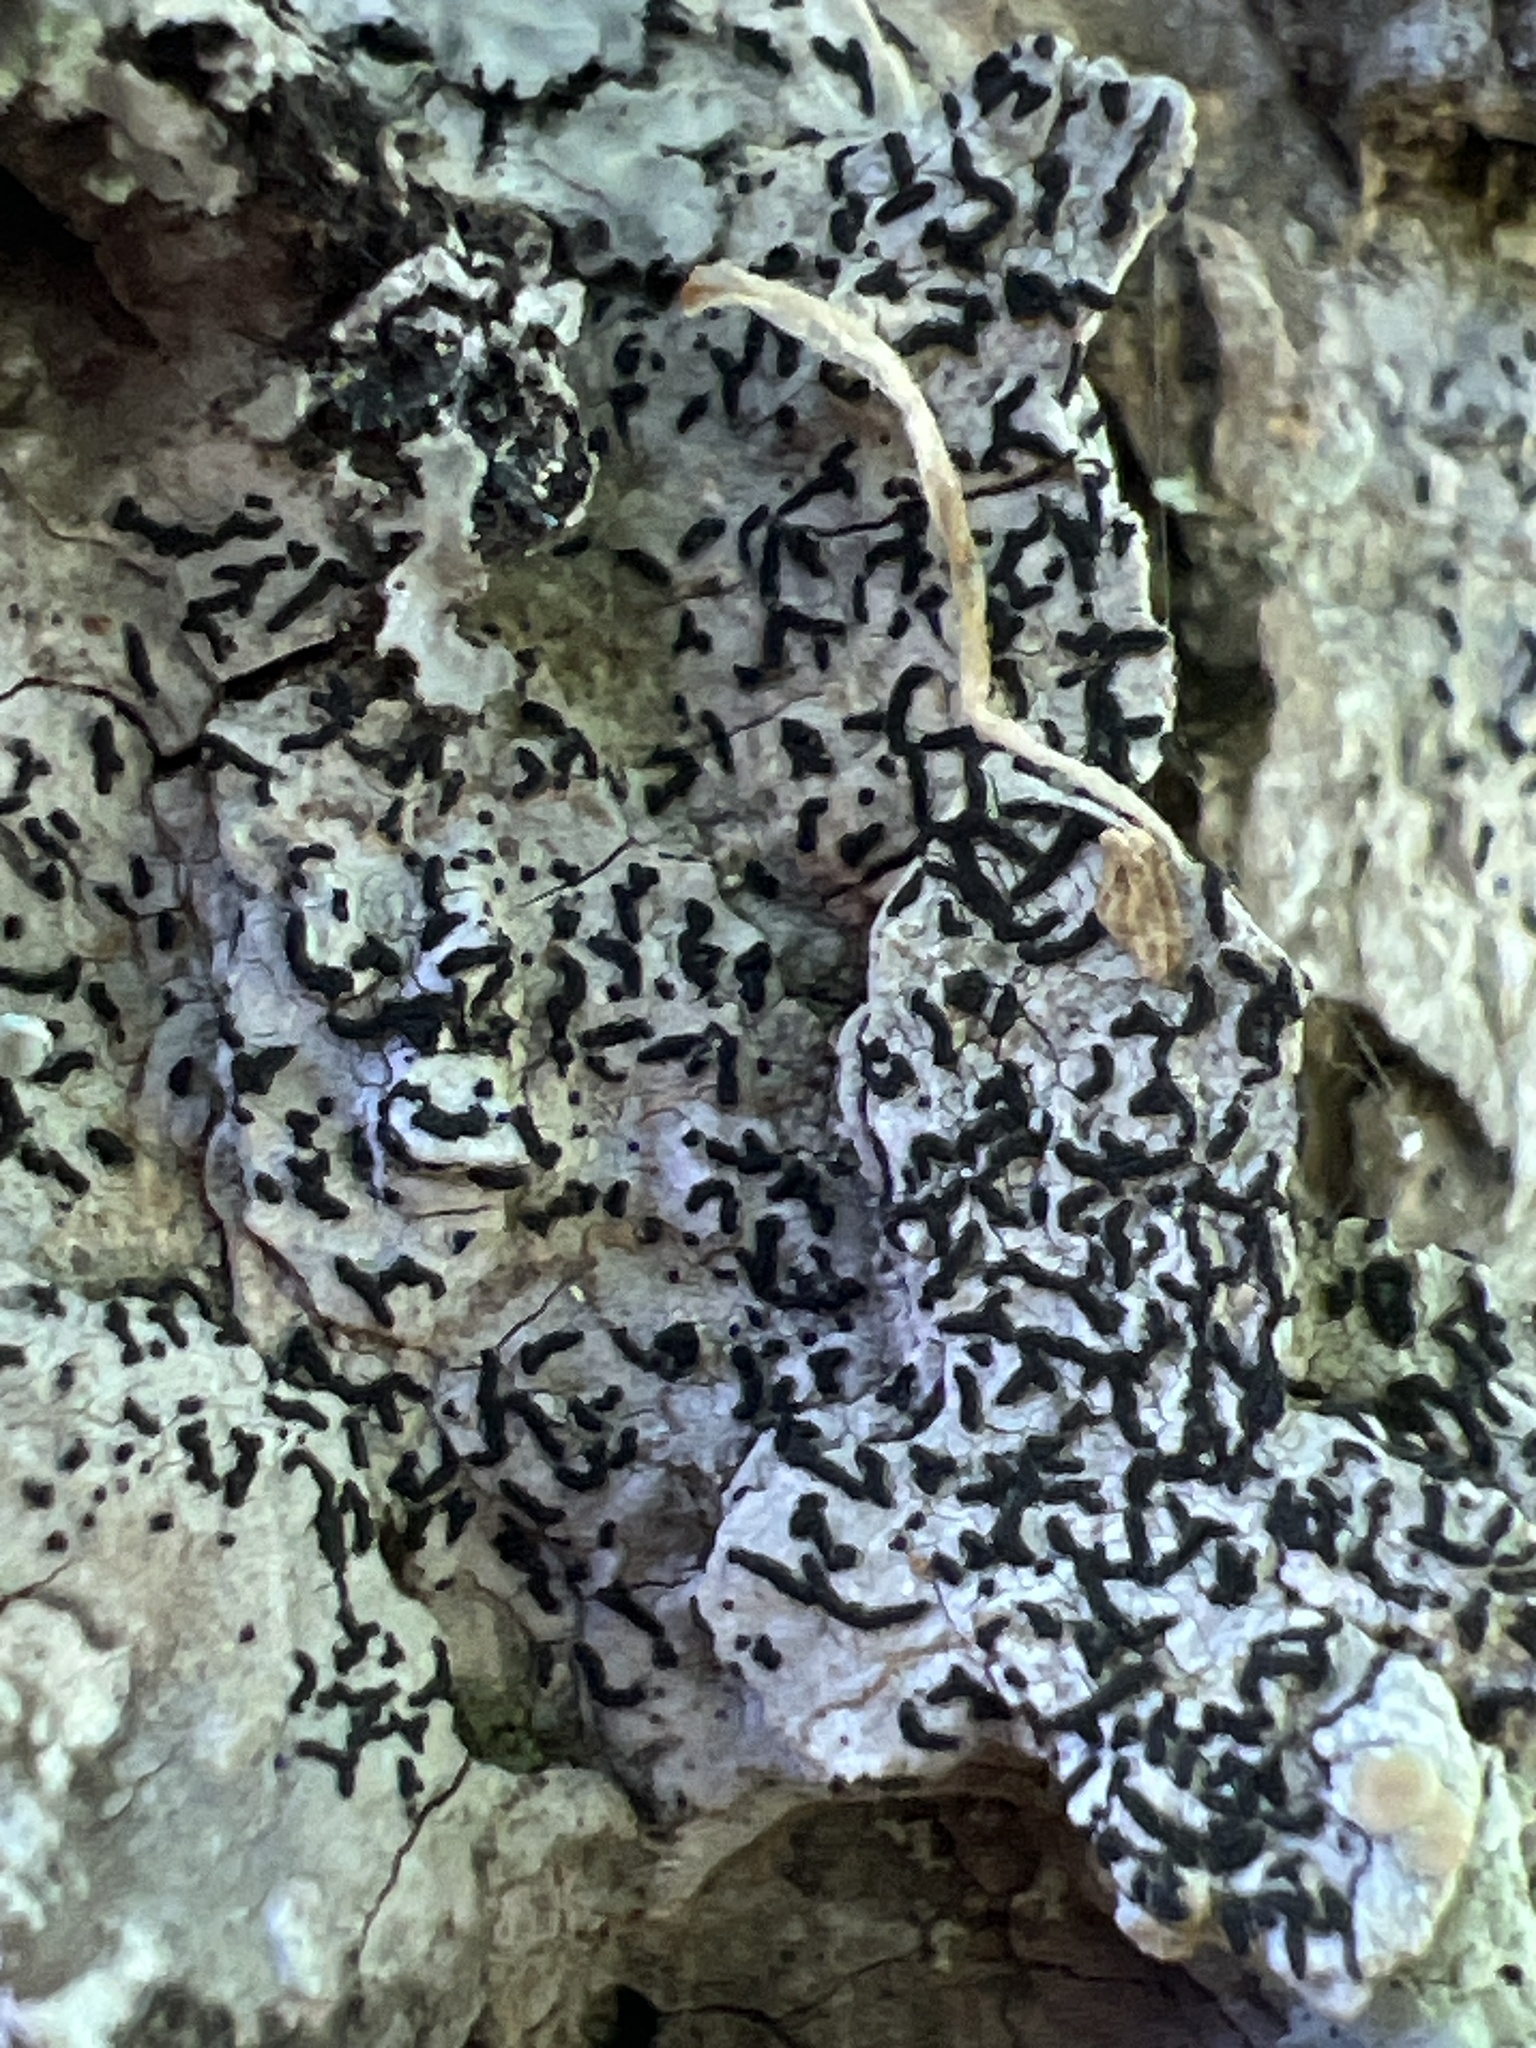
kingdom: Fungi
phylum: Ascomycota
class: Lecanoromycetes
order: Ostropales
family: Graphidaceae
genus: Graphis
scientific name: Graphis scripta
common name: Script lichen
